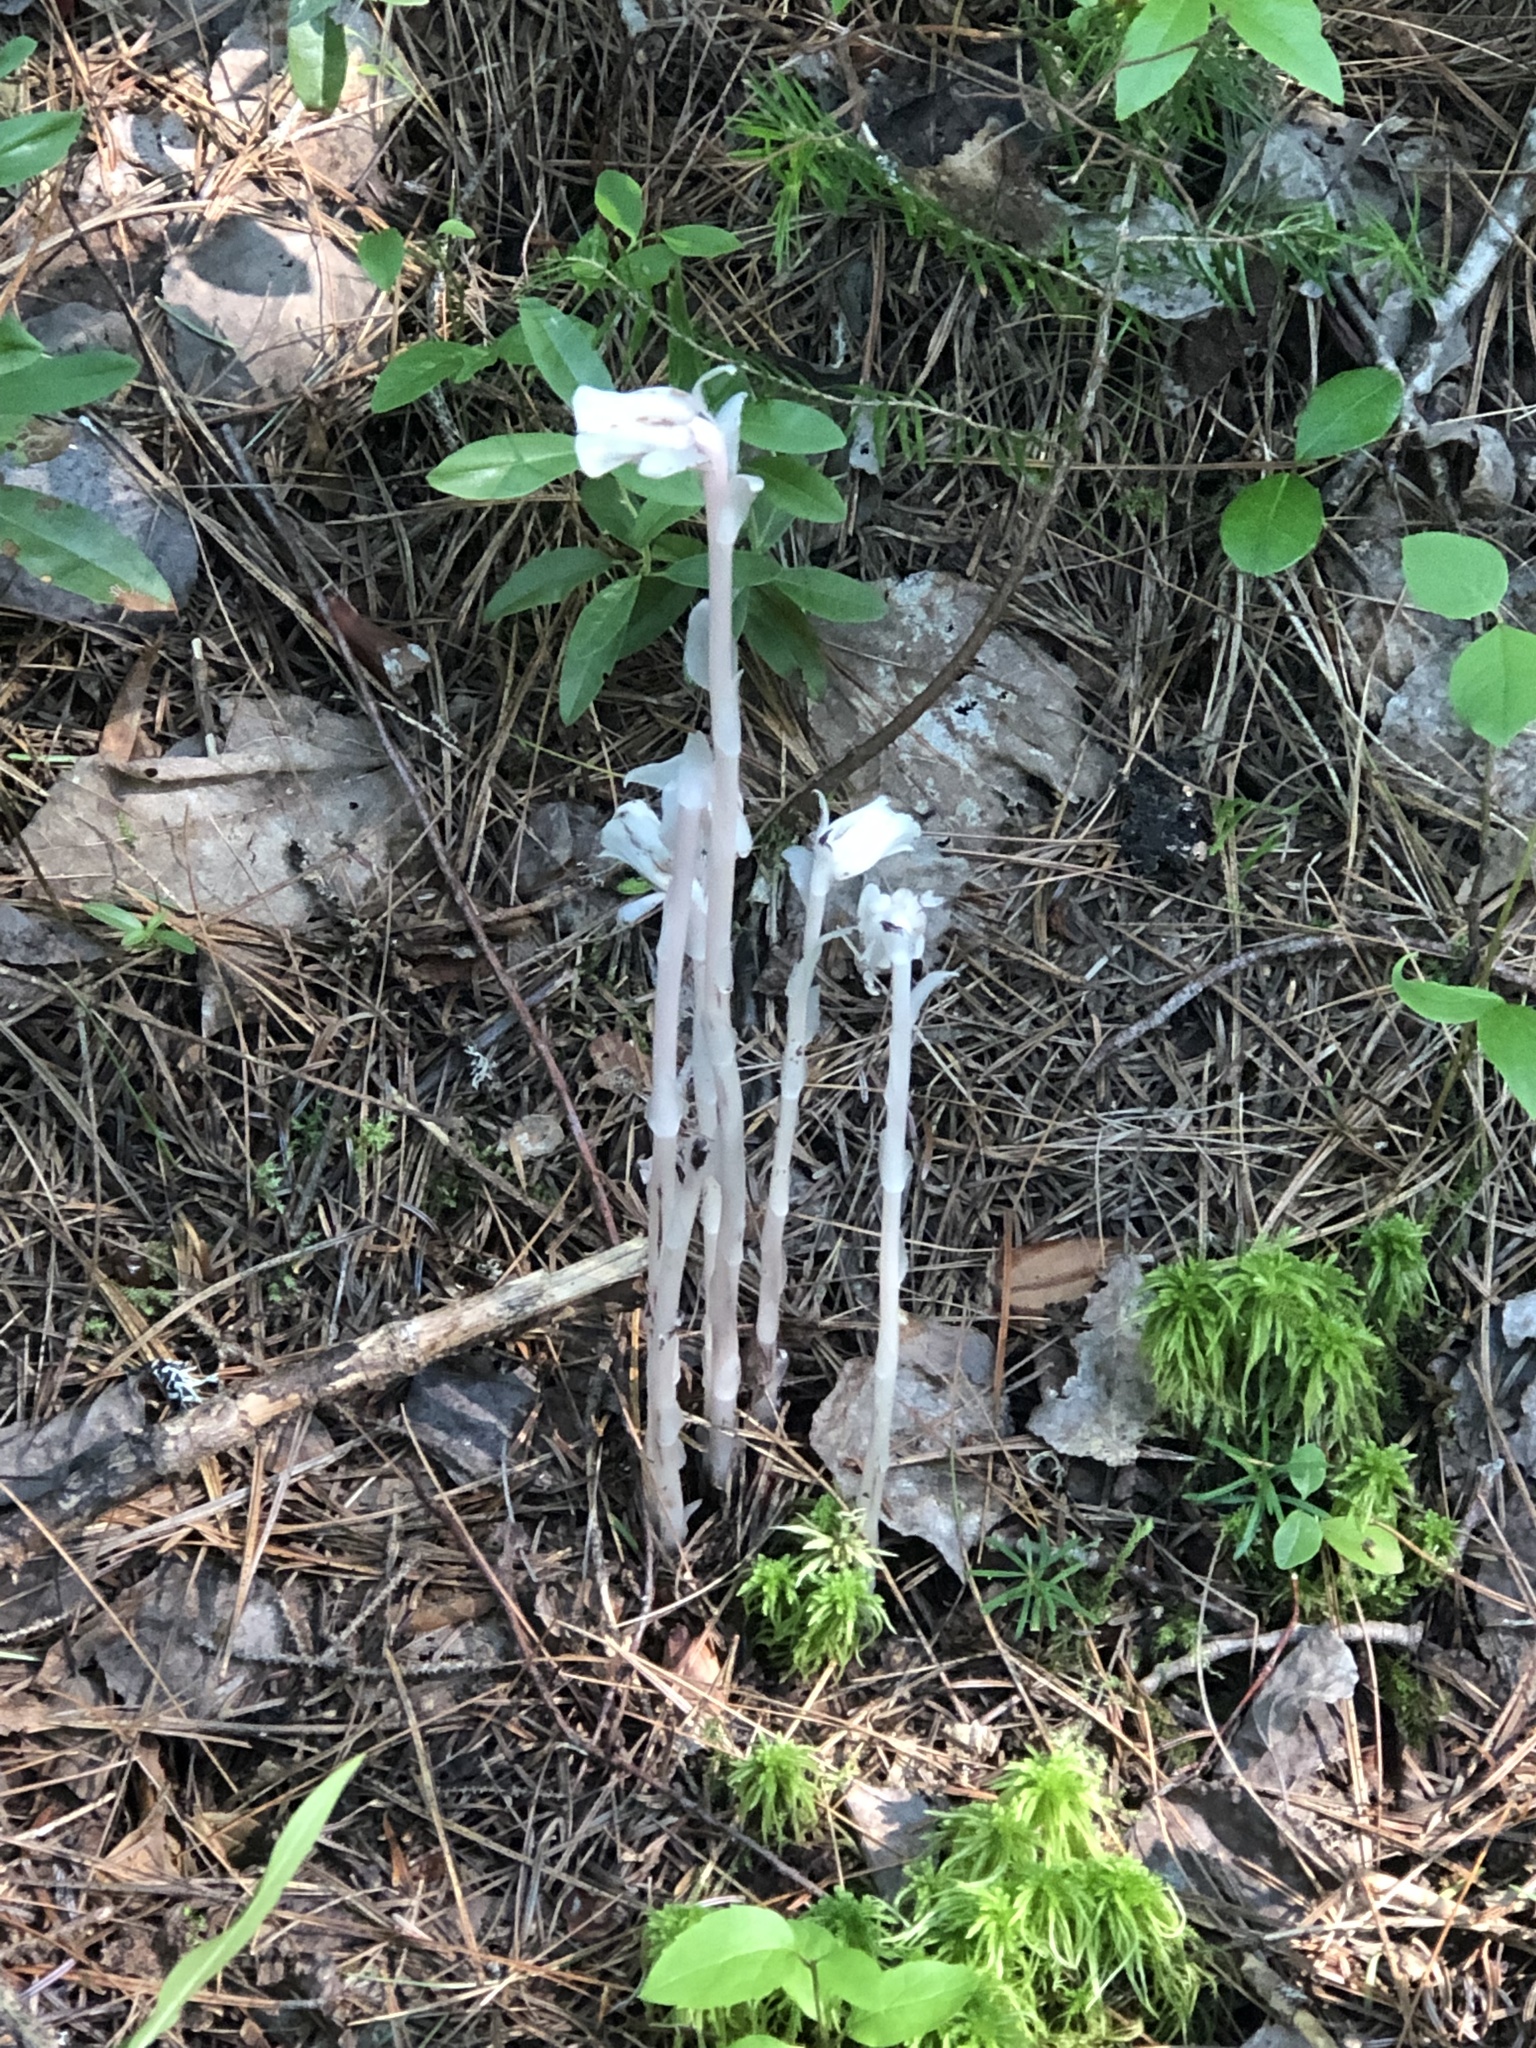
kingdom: Plantae
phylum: Tracheophyta
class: Magnoliopsida
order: Ericales
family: Ericaceae
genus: Monotropa
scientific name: Monotropa uniflora
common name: Convulsion root
